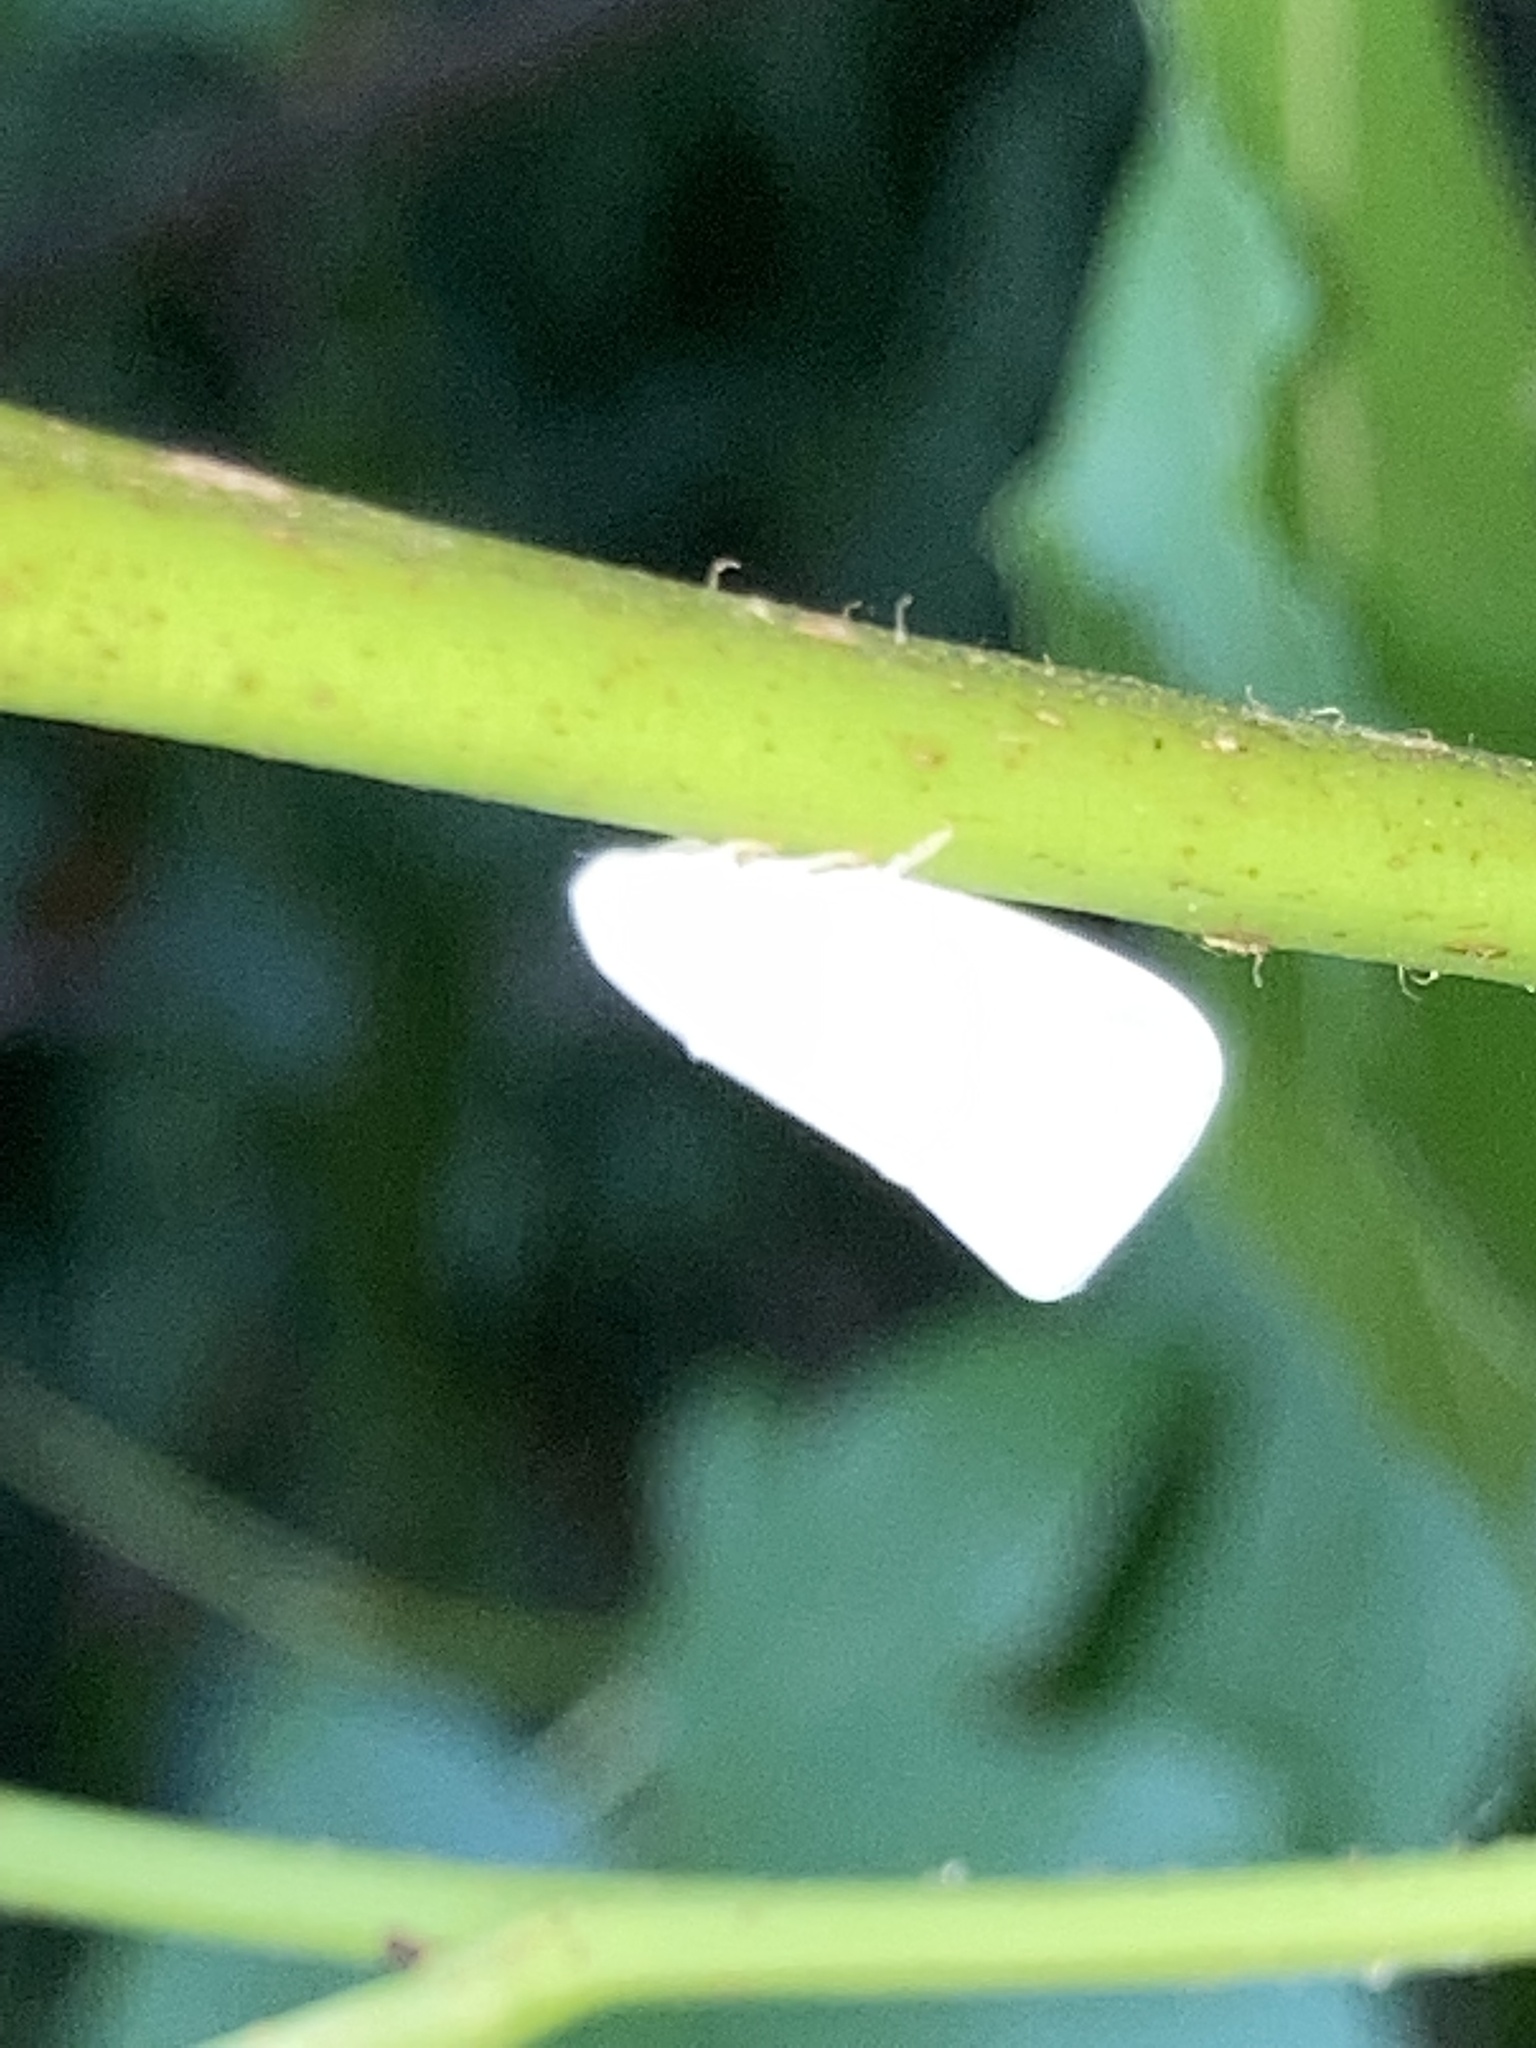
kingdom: Animalia
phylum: Arthropoda
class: Insecta
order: Hemiptera
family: Flatidae
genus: Flatormenis
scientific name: Flatormenis proxima
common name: Northern flatid planthopper
